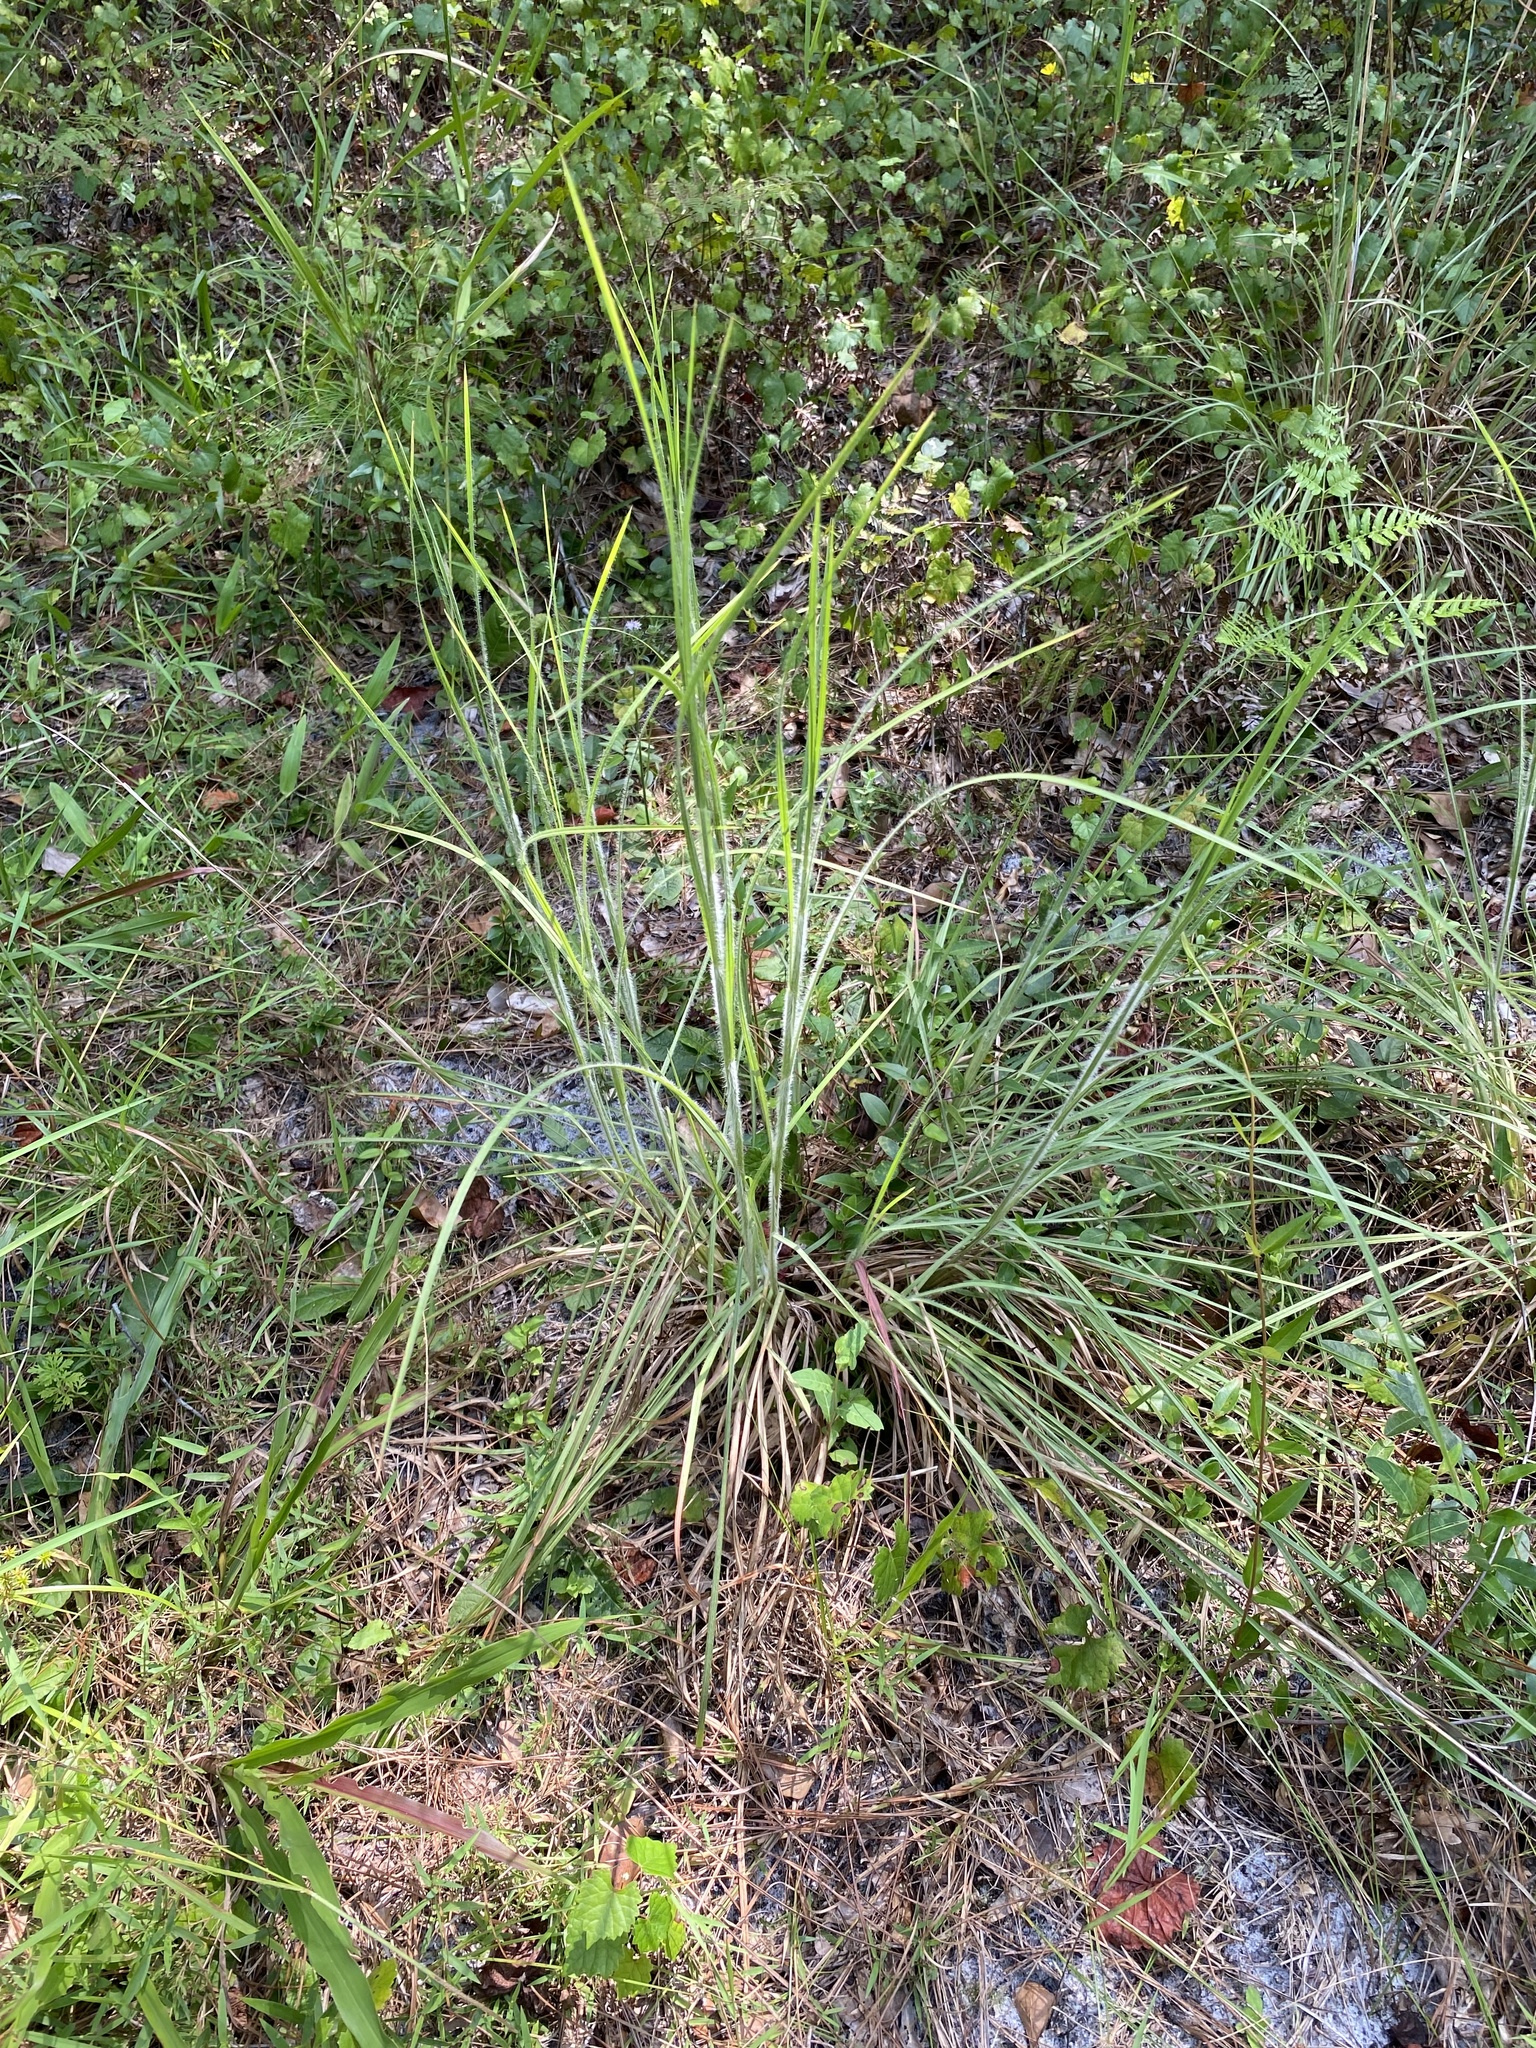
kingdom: Plantae
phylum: Tracheophyta
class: Liliopsida
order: Poales
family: Poaceae
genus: Andropogon
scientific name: Andropogon hirsutior
